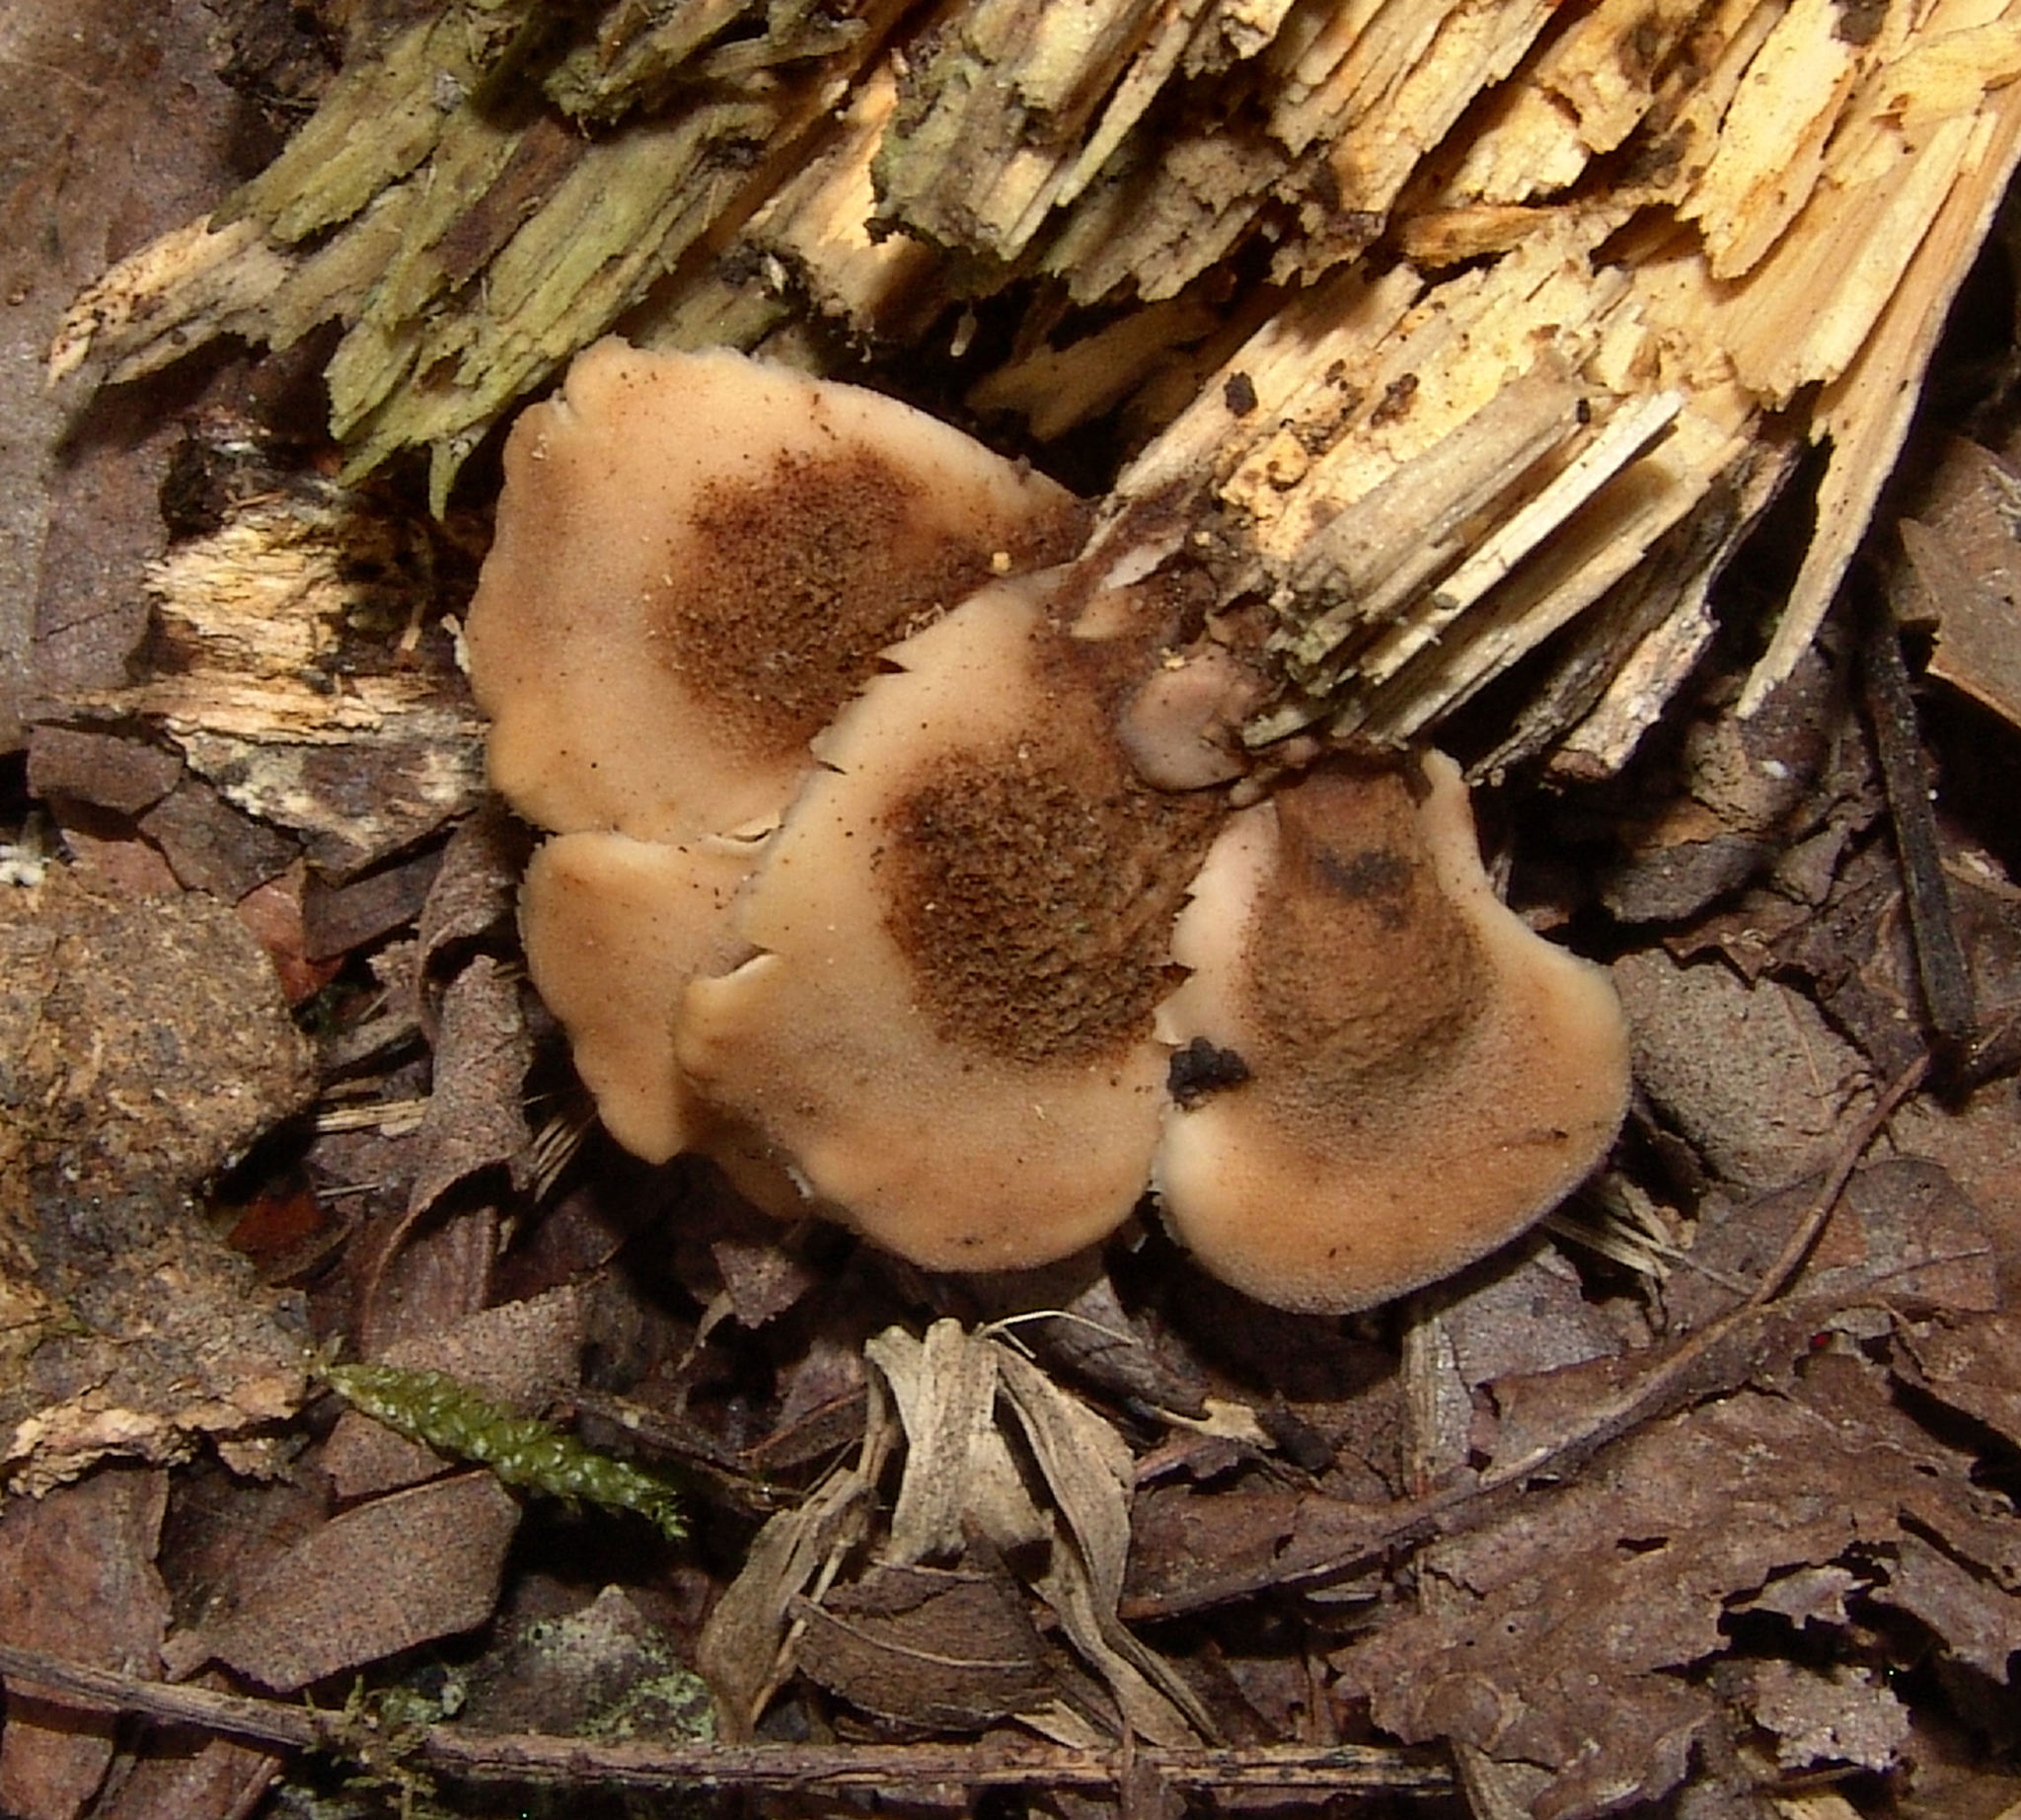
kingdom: Fungi
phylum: Basidiomycota
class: Agaricomycetes
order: Russulales
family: Auriscalpiaceae
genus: Lentinellus
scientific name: Lentinellus ursinus
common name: Bear lentinus
